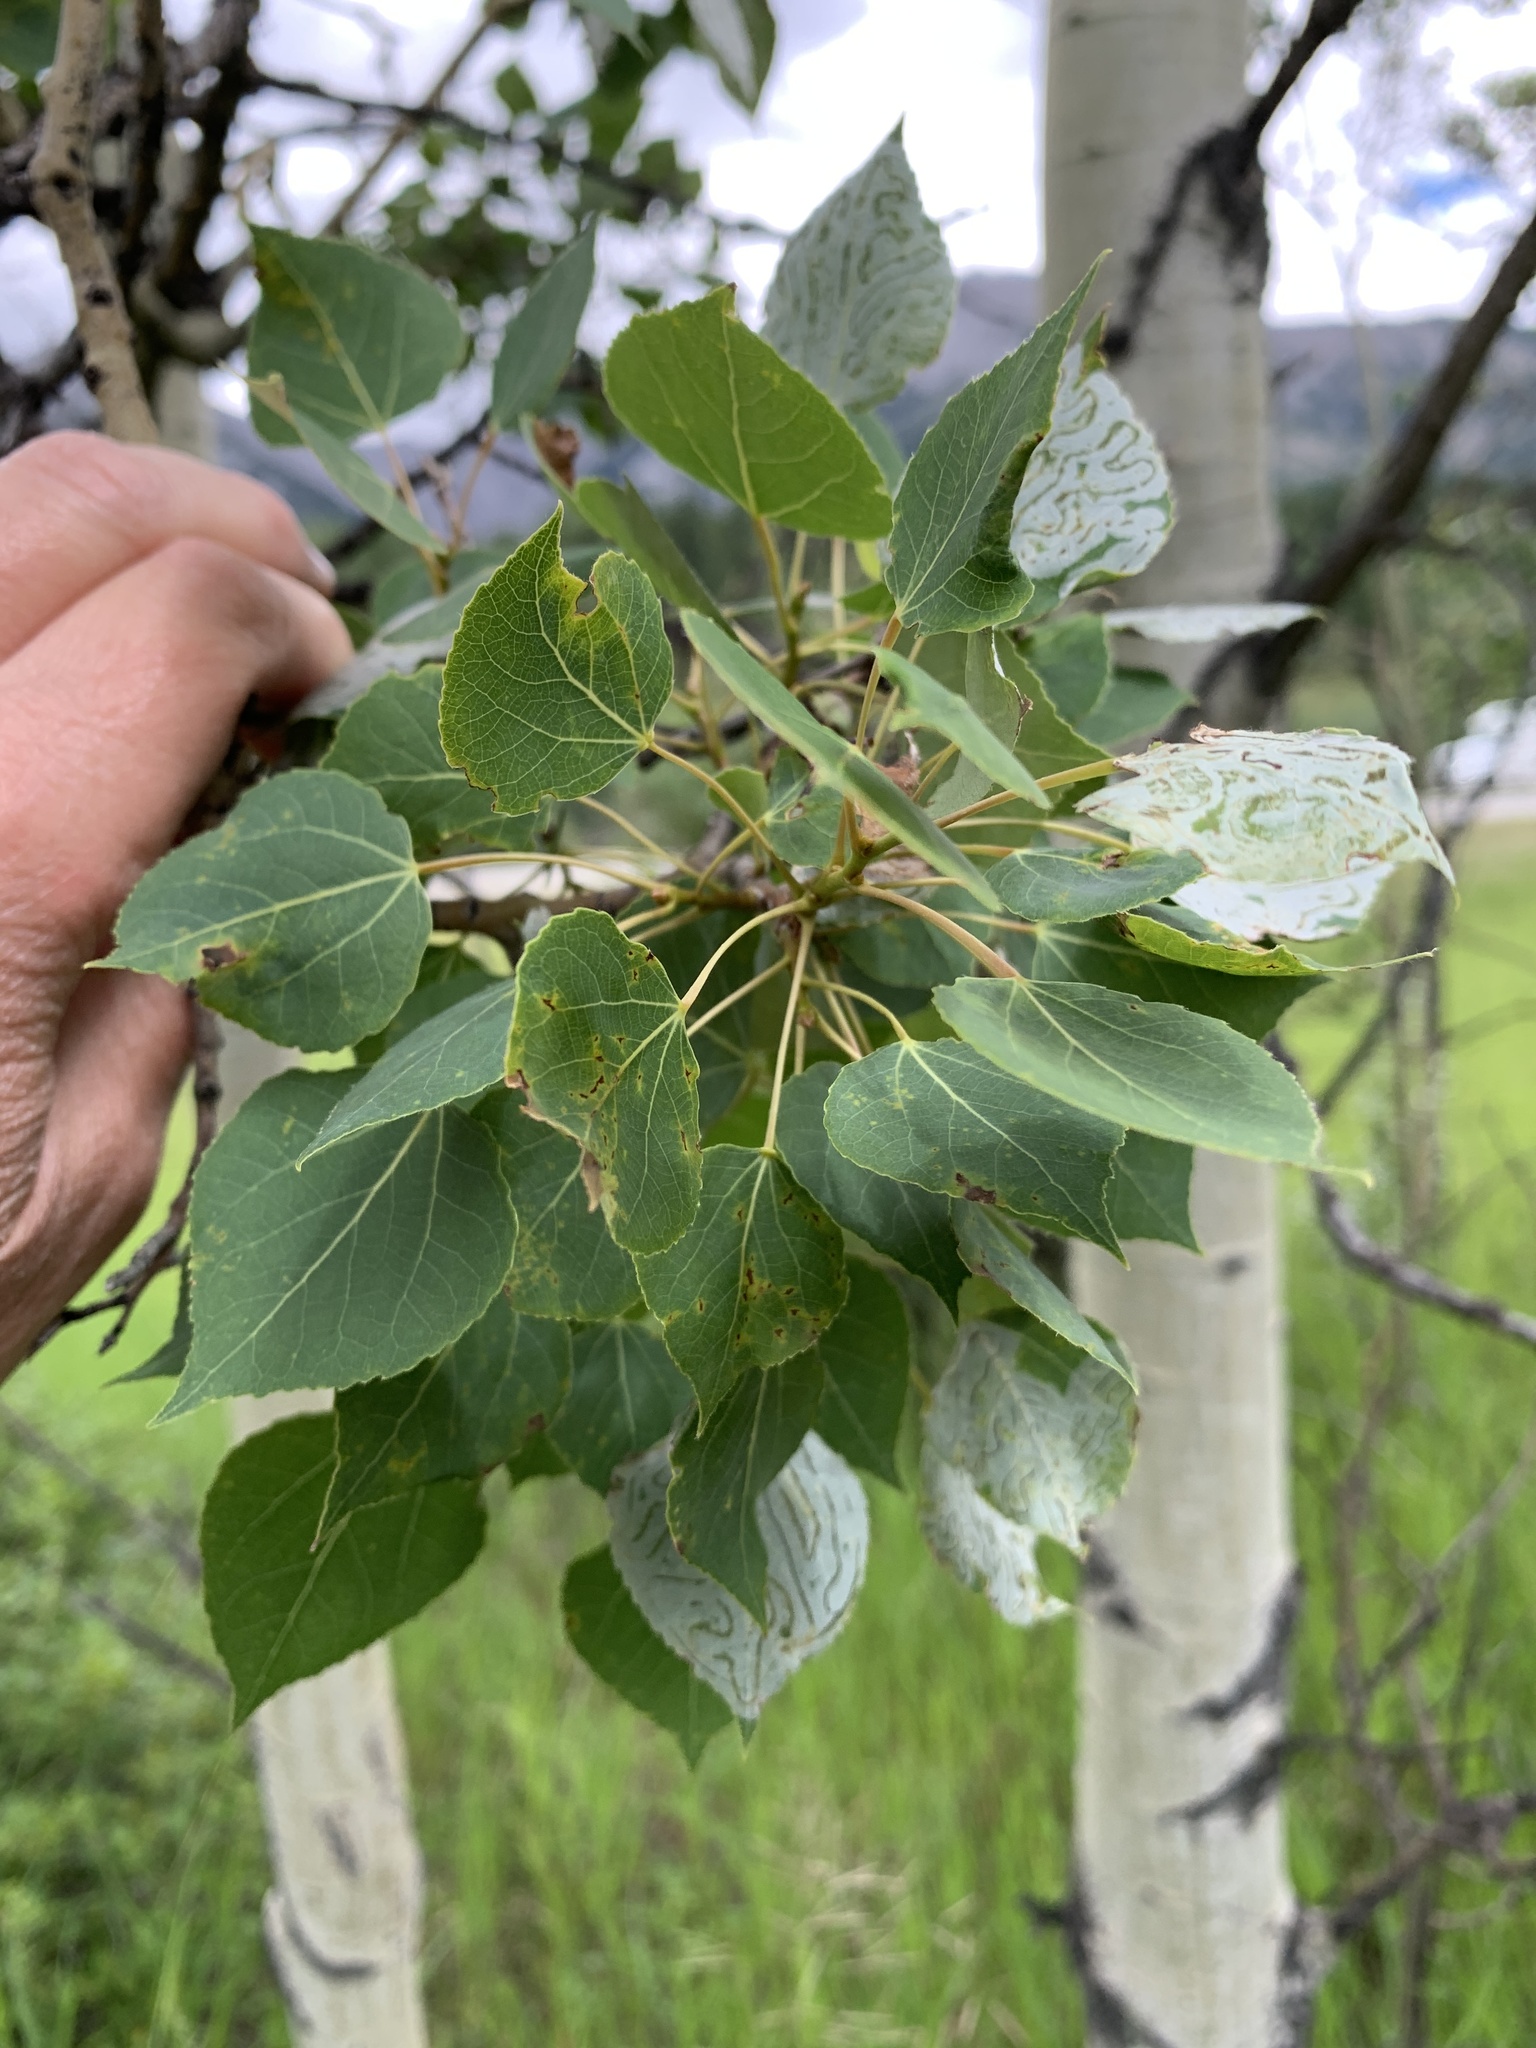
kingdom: Plantae
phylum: Tracheophyta
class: Magnoliopsida
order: Malpighiales
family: Salicaceae
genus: Populus
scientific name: Populus tremuloides
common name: Quaking aspen
